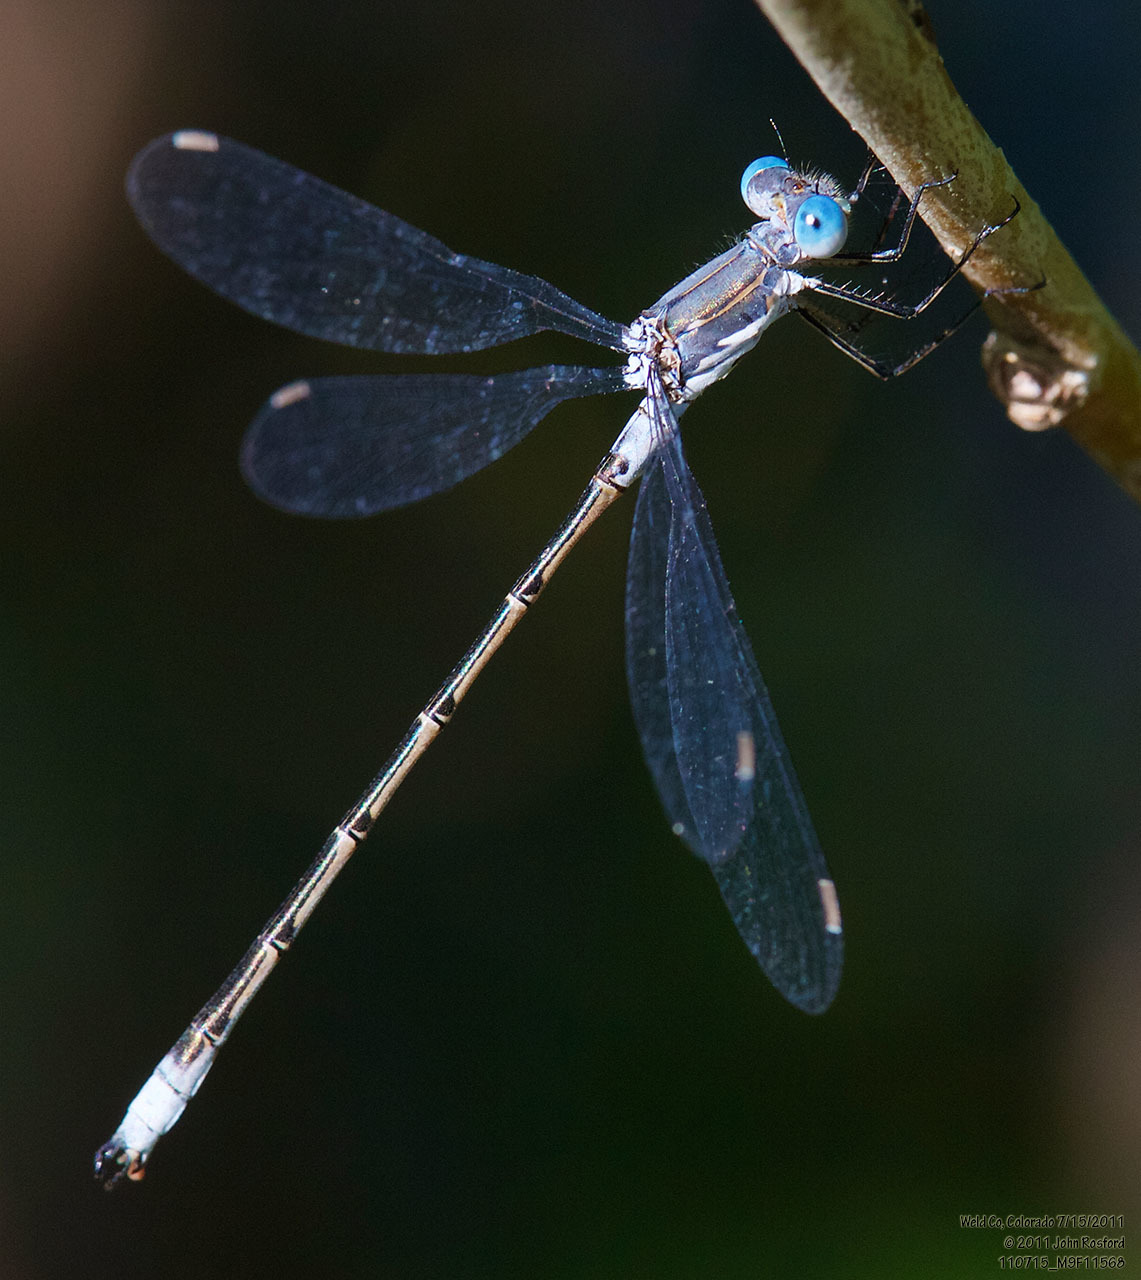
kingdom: Animalia
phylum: Arthropoda
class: Insecta
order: Odonata
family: Lestidae
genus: Lestes
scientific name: Lestes congener
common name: Spotted spreadwing
